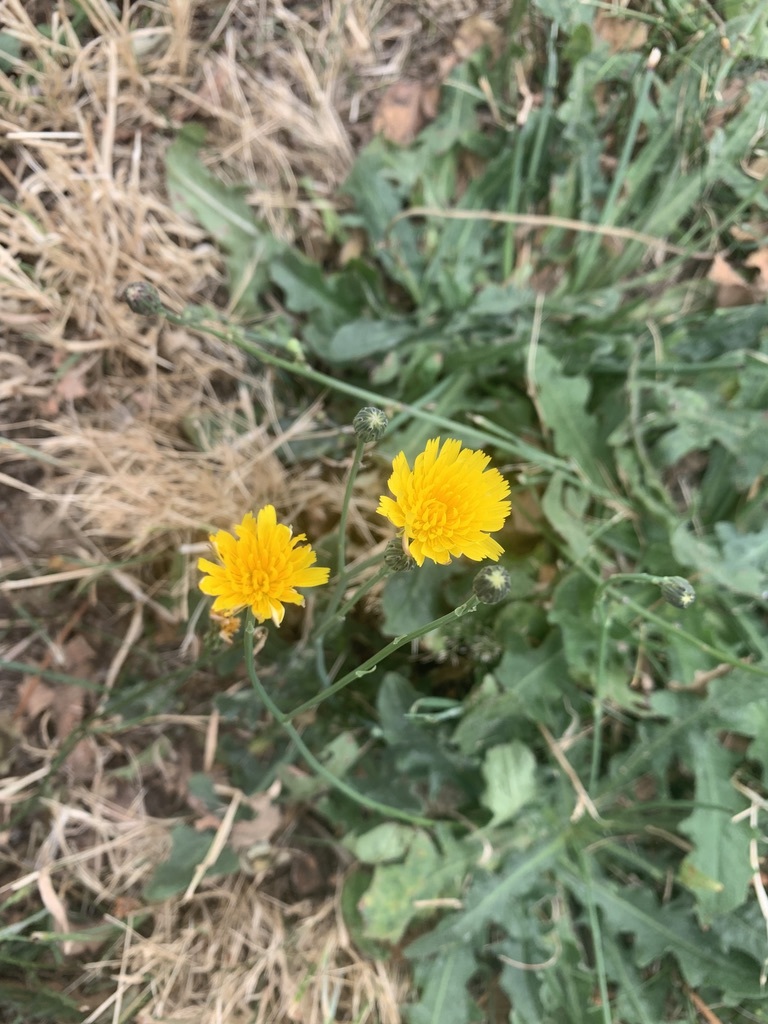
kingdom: Plantae
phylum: Tracheophyta
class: Magnoliopsida
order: Asterales
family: Asteraceae
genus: Hypochaeris
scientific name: Hypochaeris radicata
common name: Flatweed
